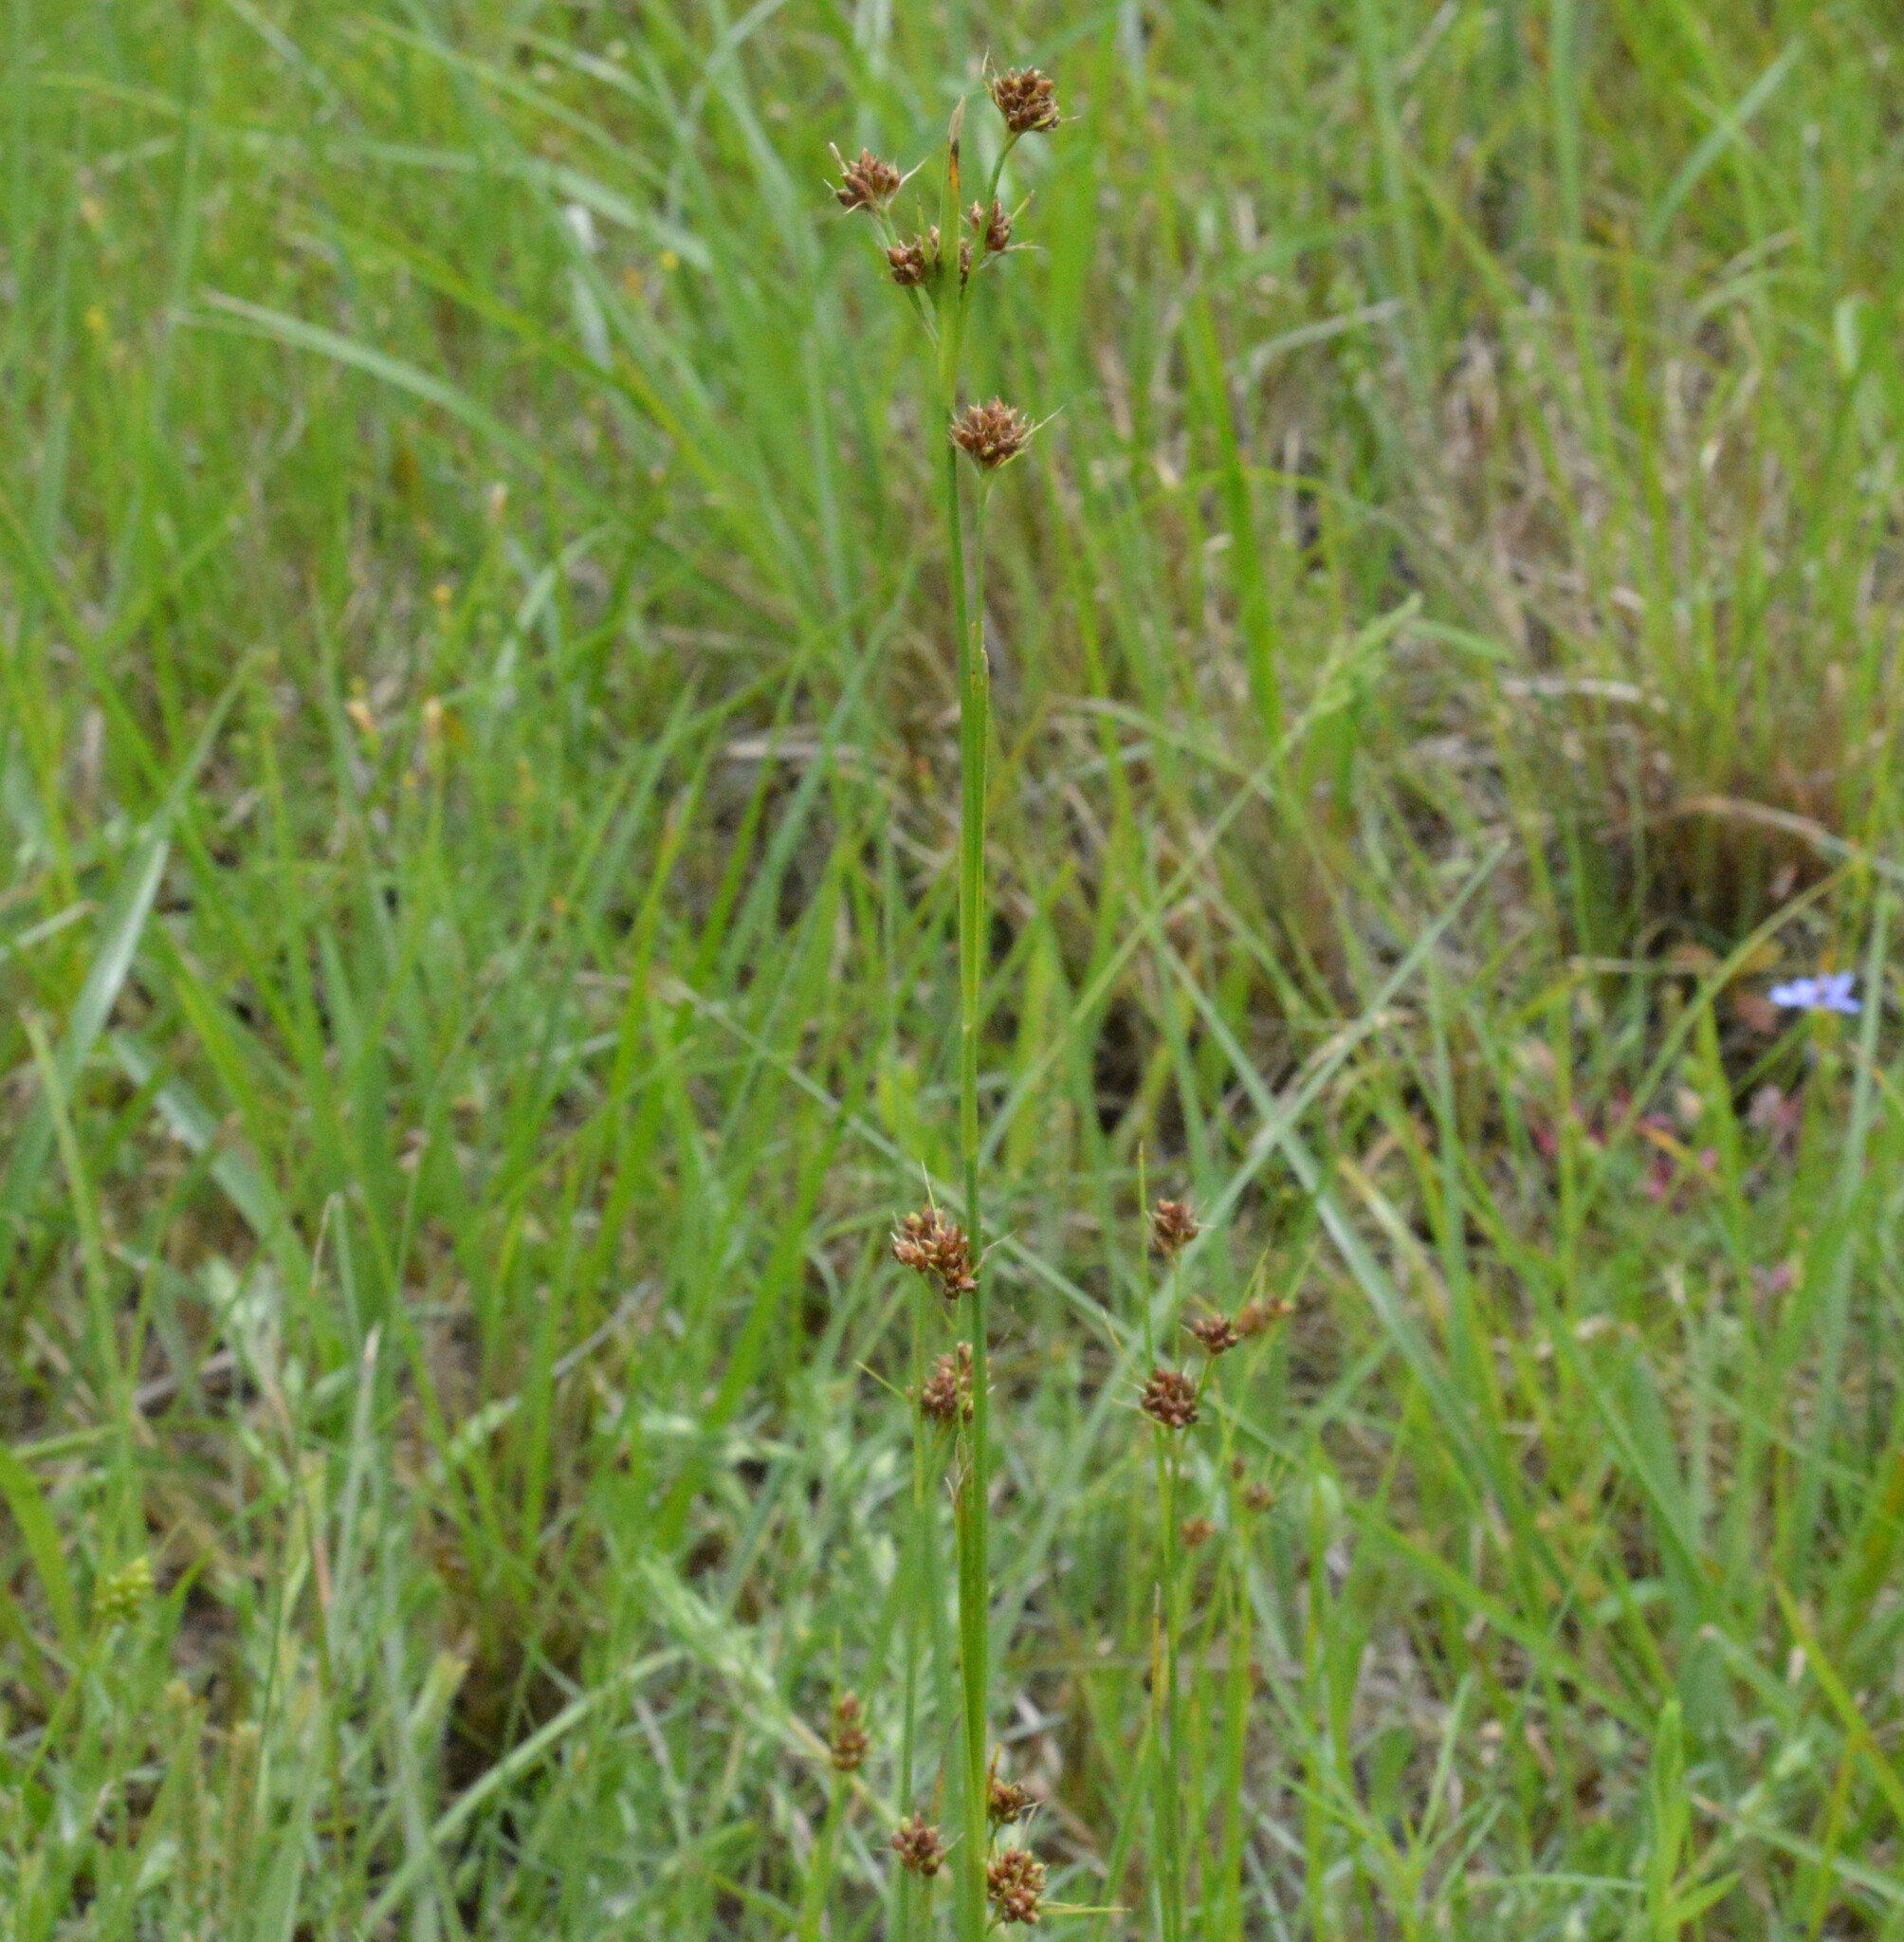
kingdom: Plantae
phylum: Tracheophyta
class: Liliopsida
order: Poales
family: Cyperaceae
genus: Rhynchospora
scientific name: Rhynchospora harveyi
